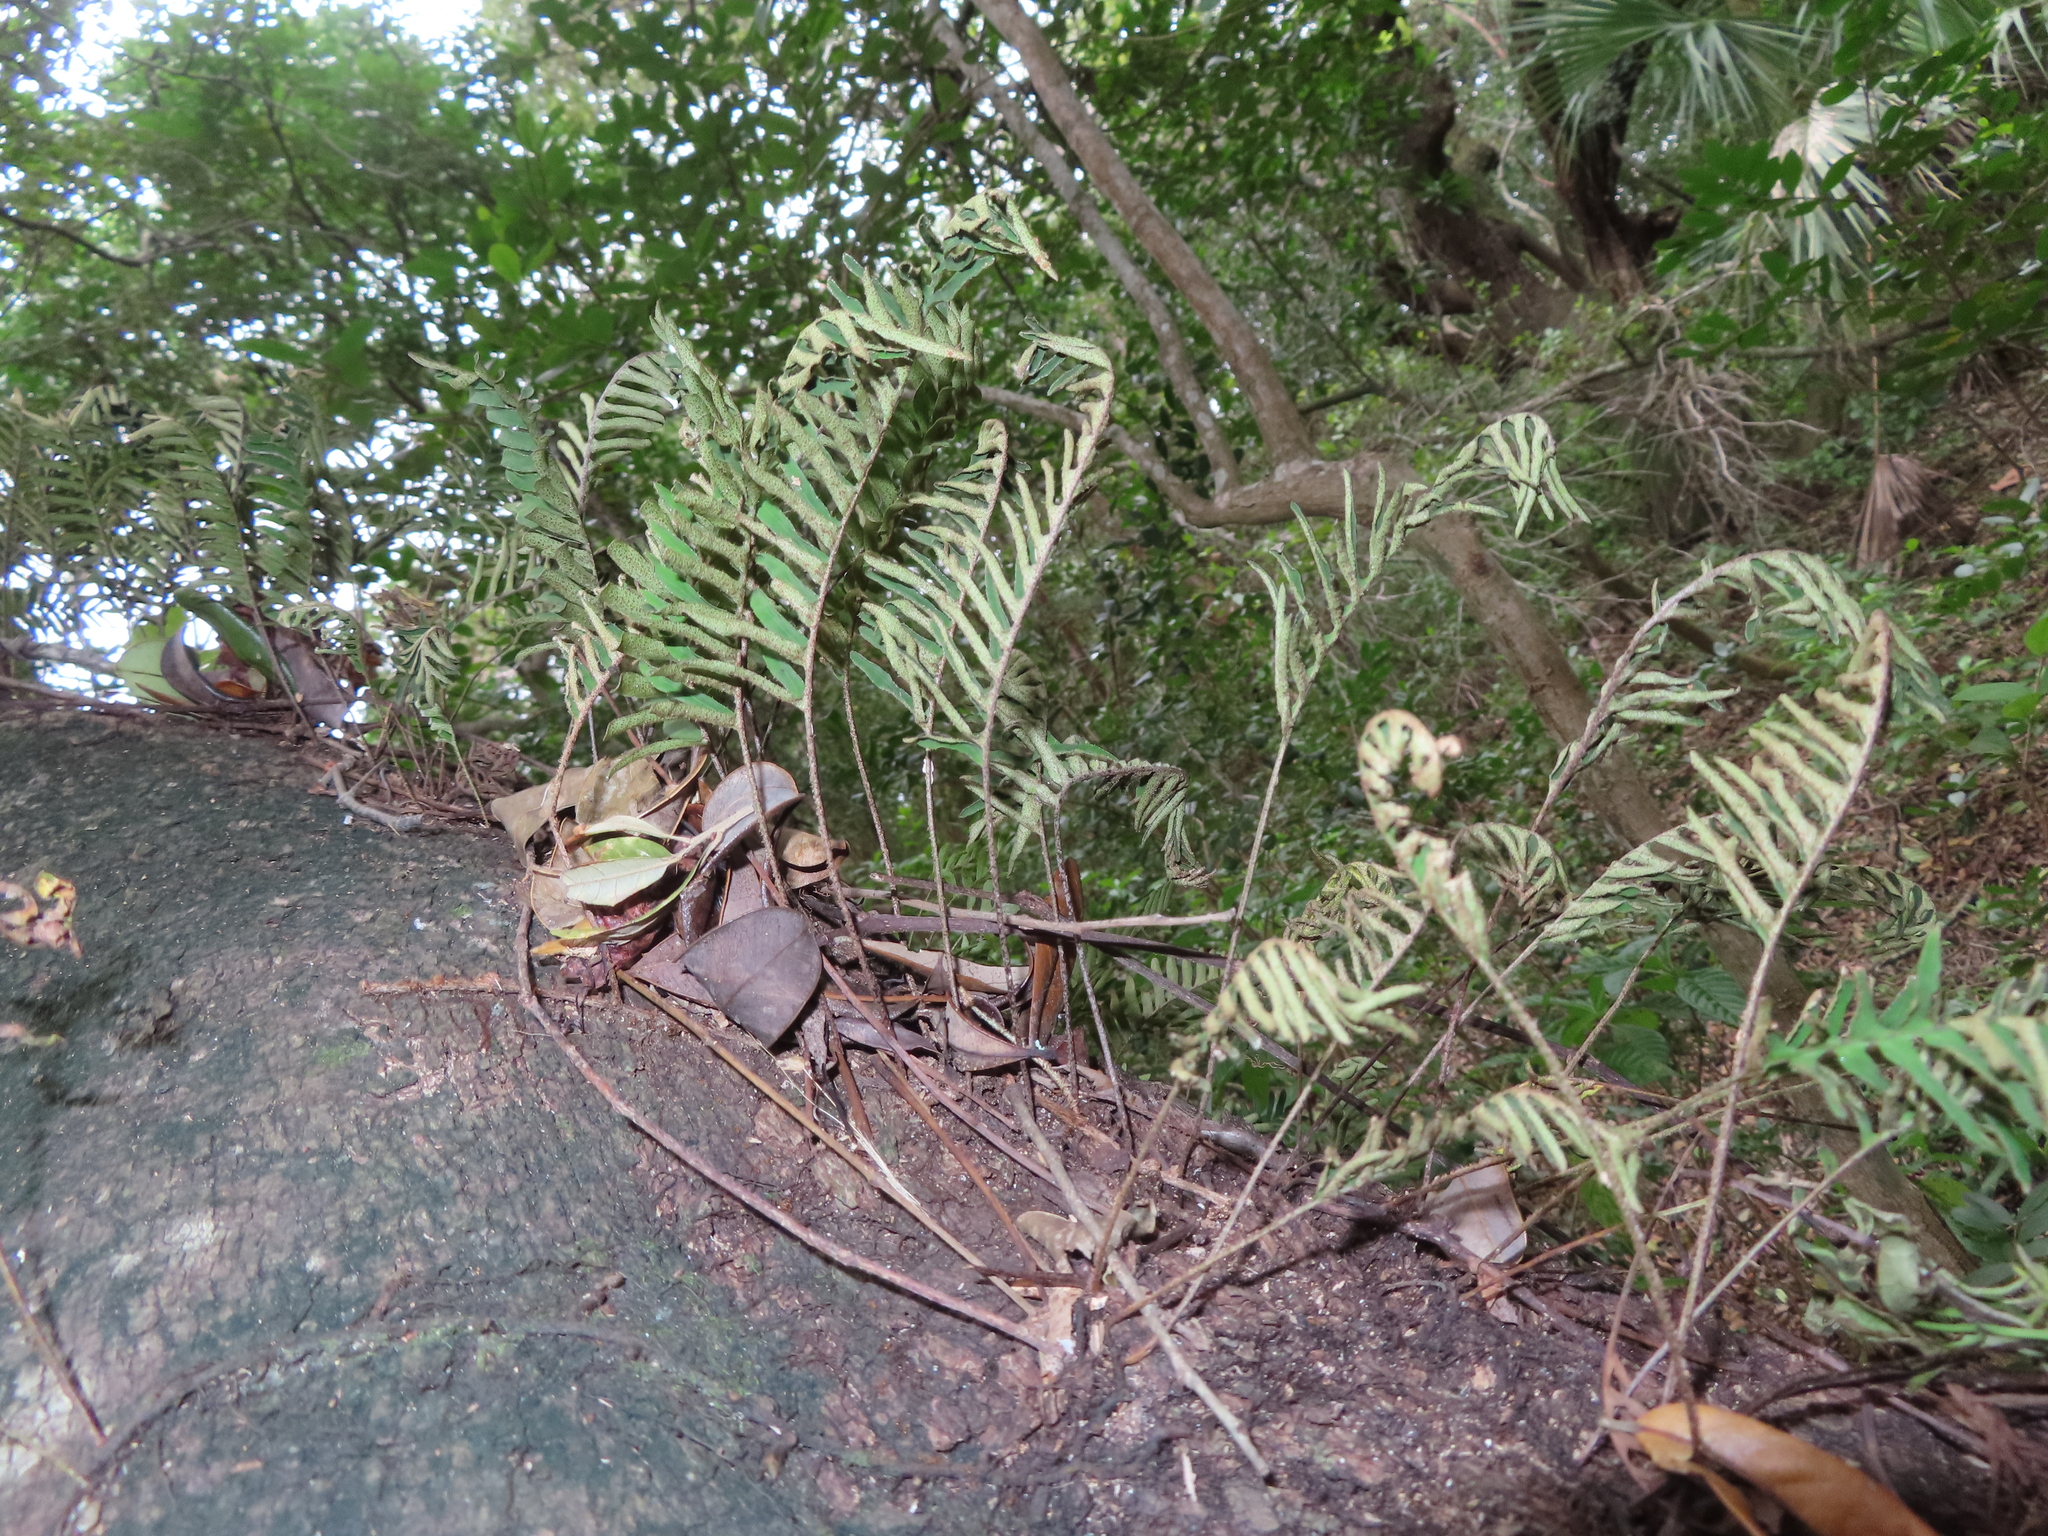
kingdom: Plantae
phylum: Tracheophyta
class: Polypodiopsida
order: Polypodiales
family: Polypodiaceae
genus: Pleopeltis
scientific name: Pleopeltis michauxiana
